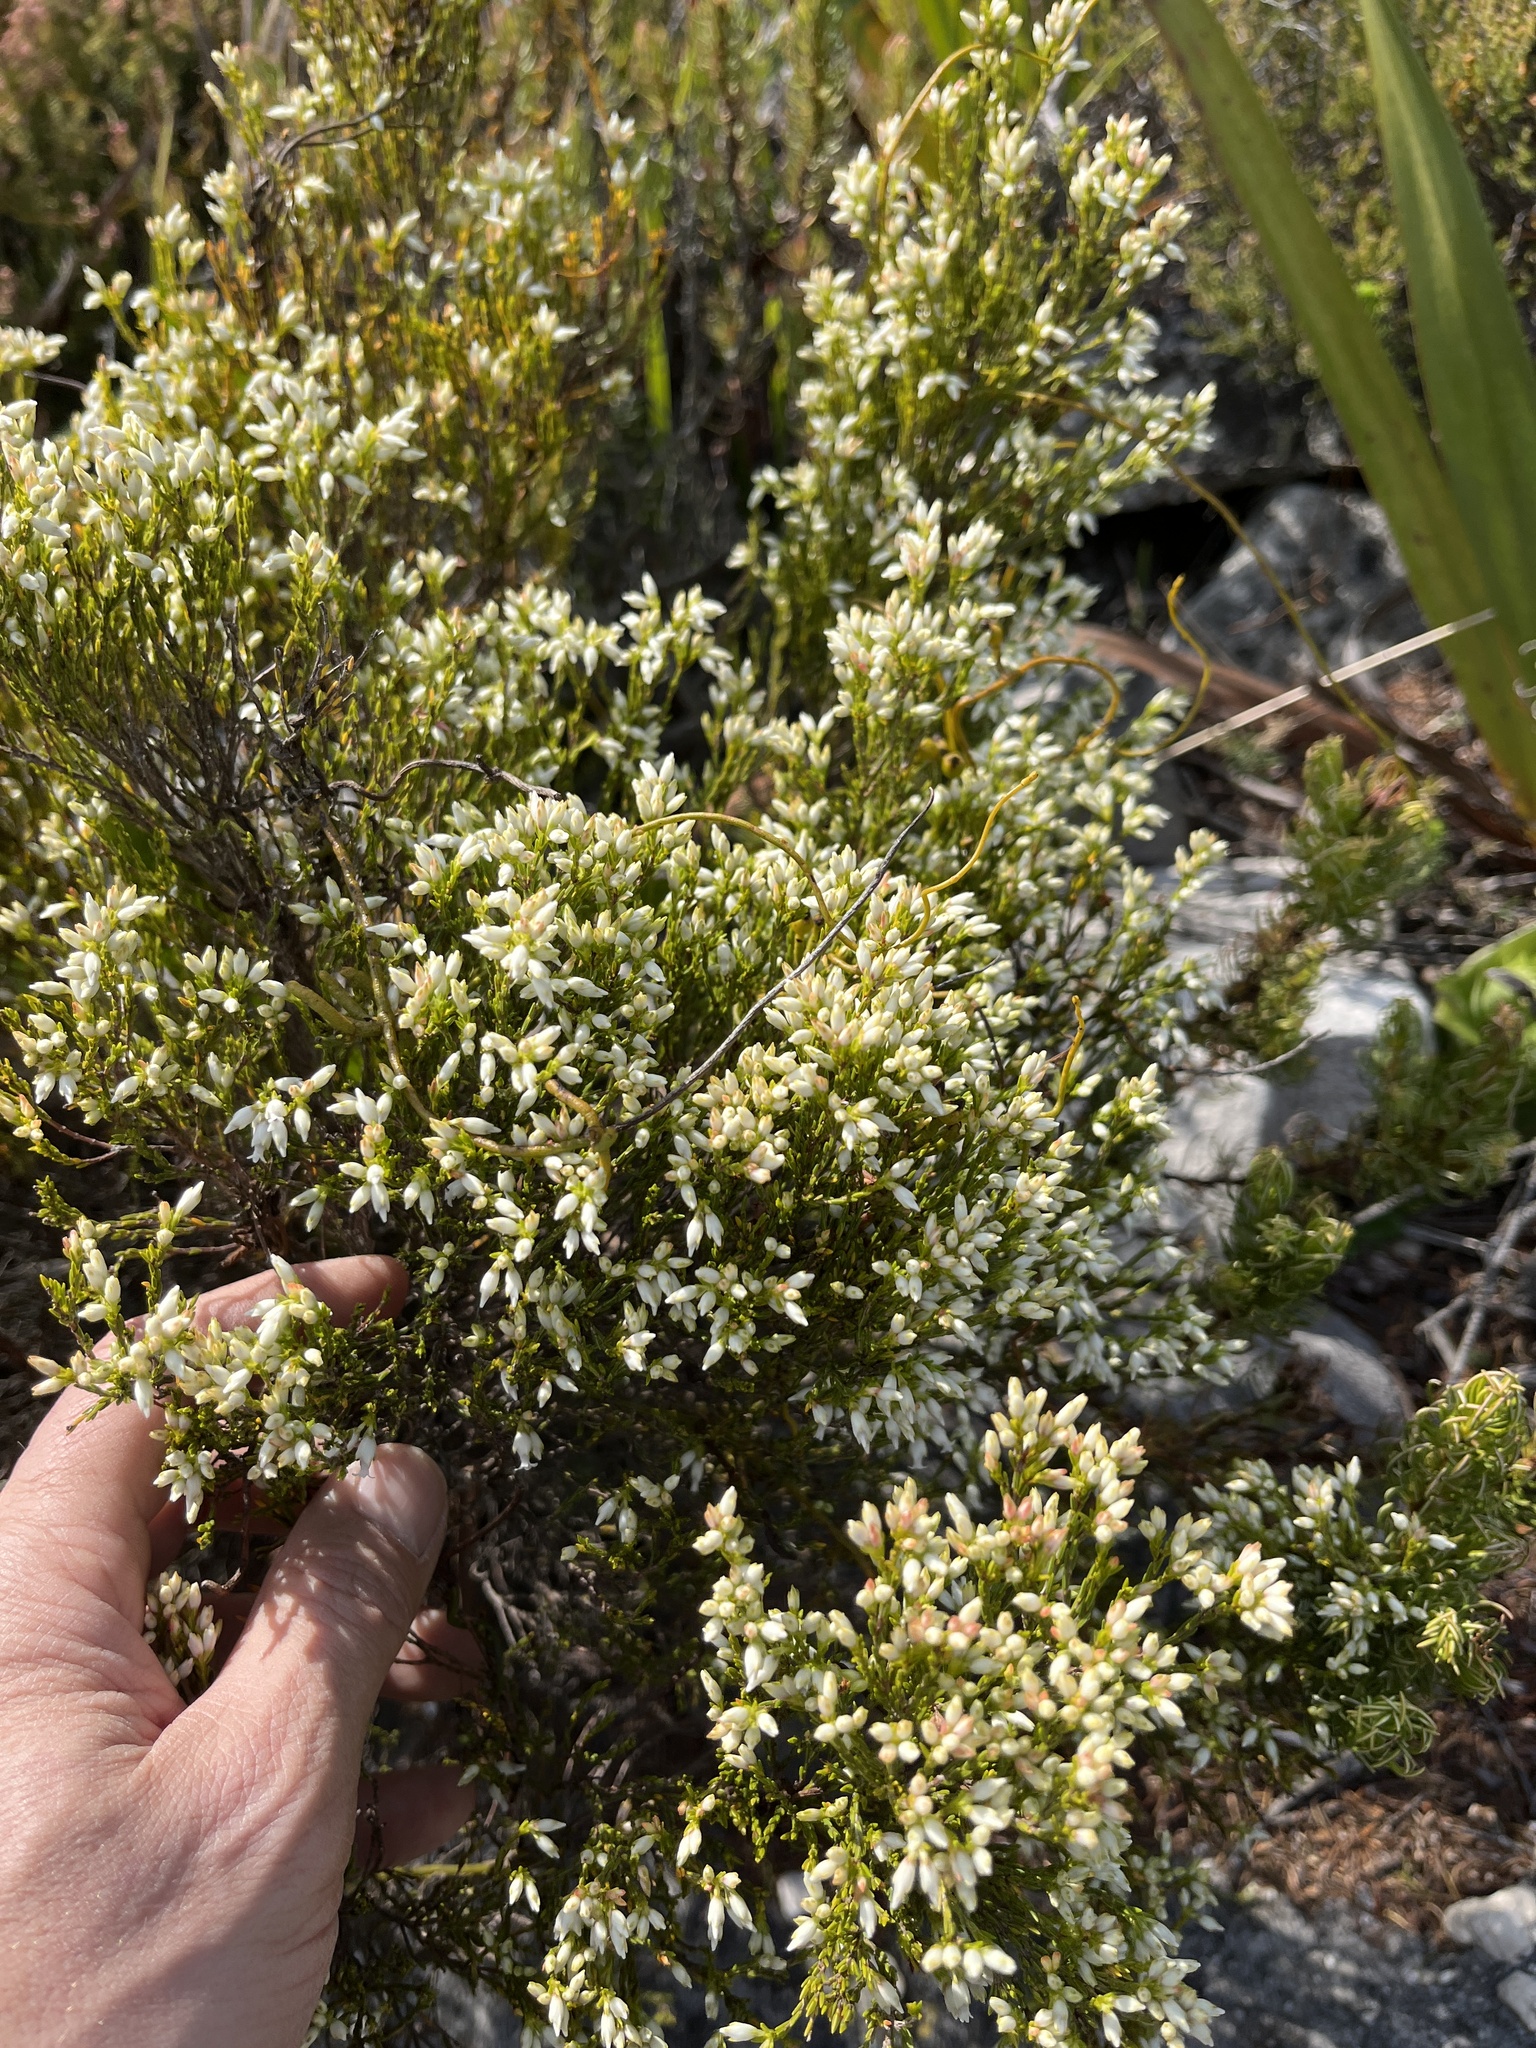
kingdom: Plantae
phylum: Tracheophyta
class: Magnoliopsida
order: Ericales
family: Ericaceae
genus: Erica
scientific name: Erica lutea
